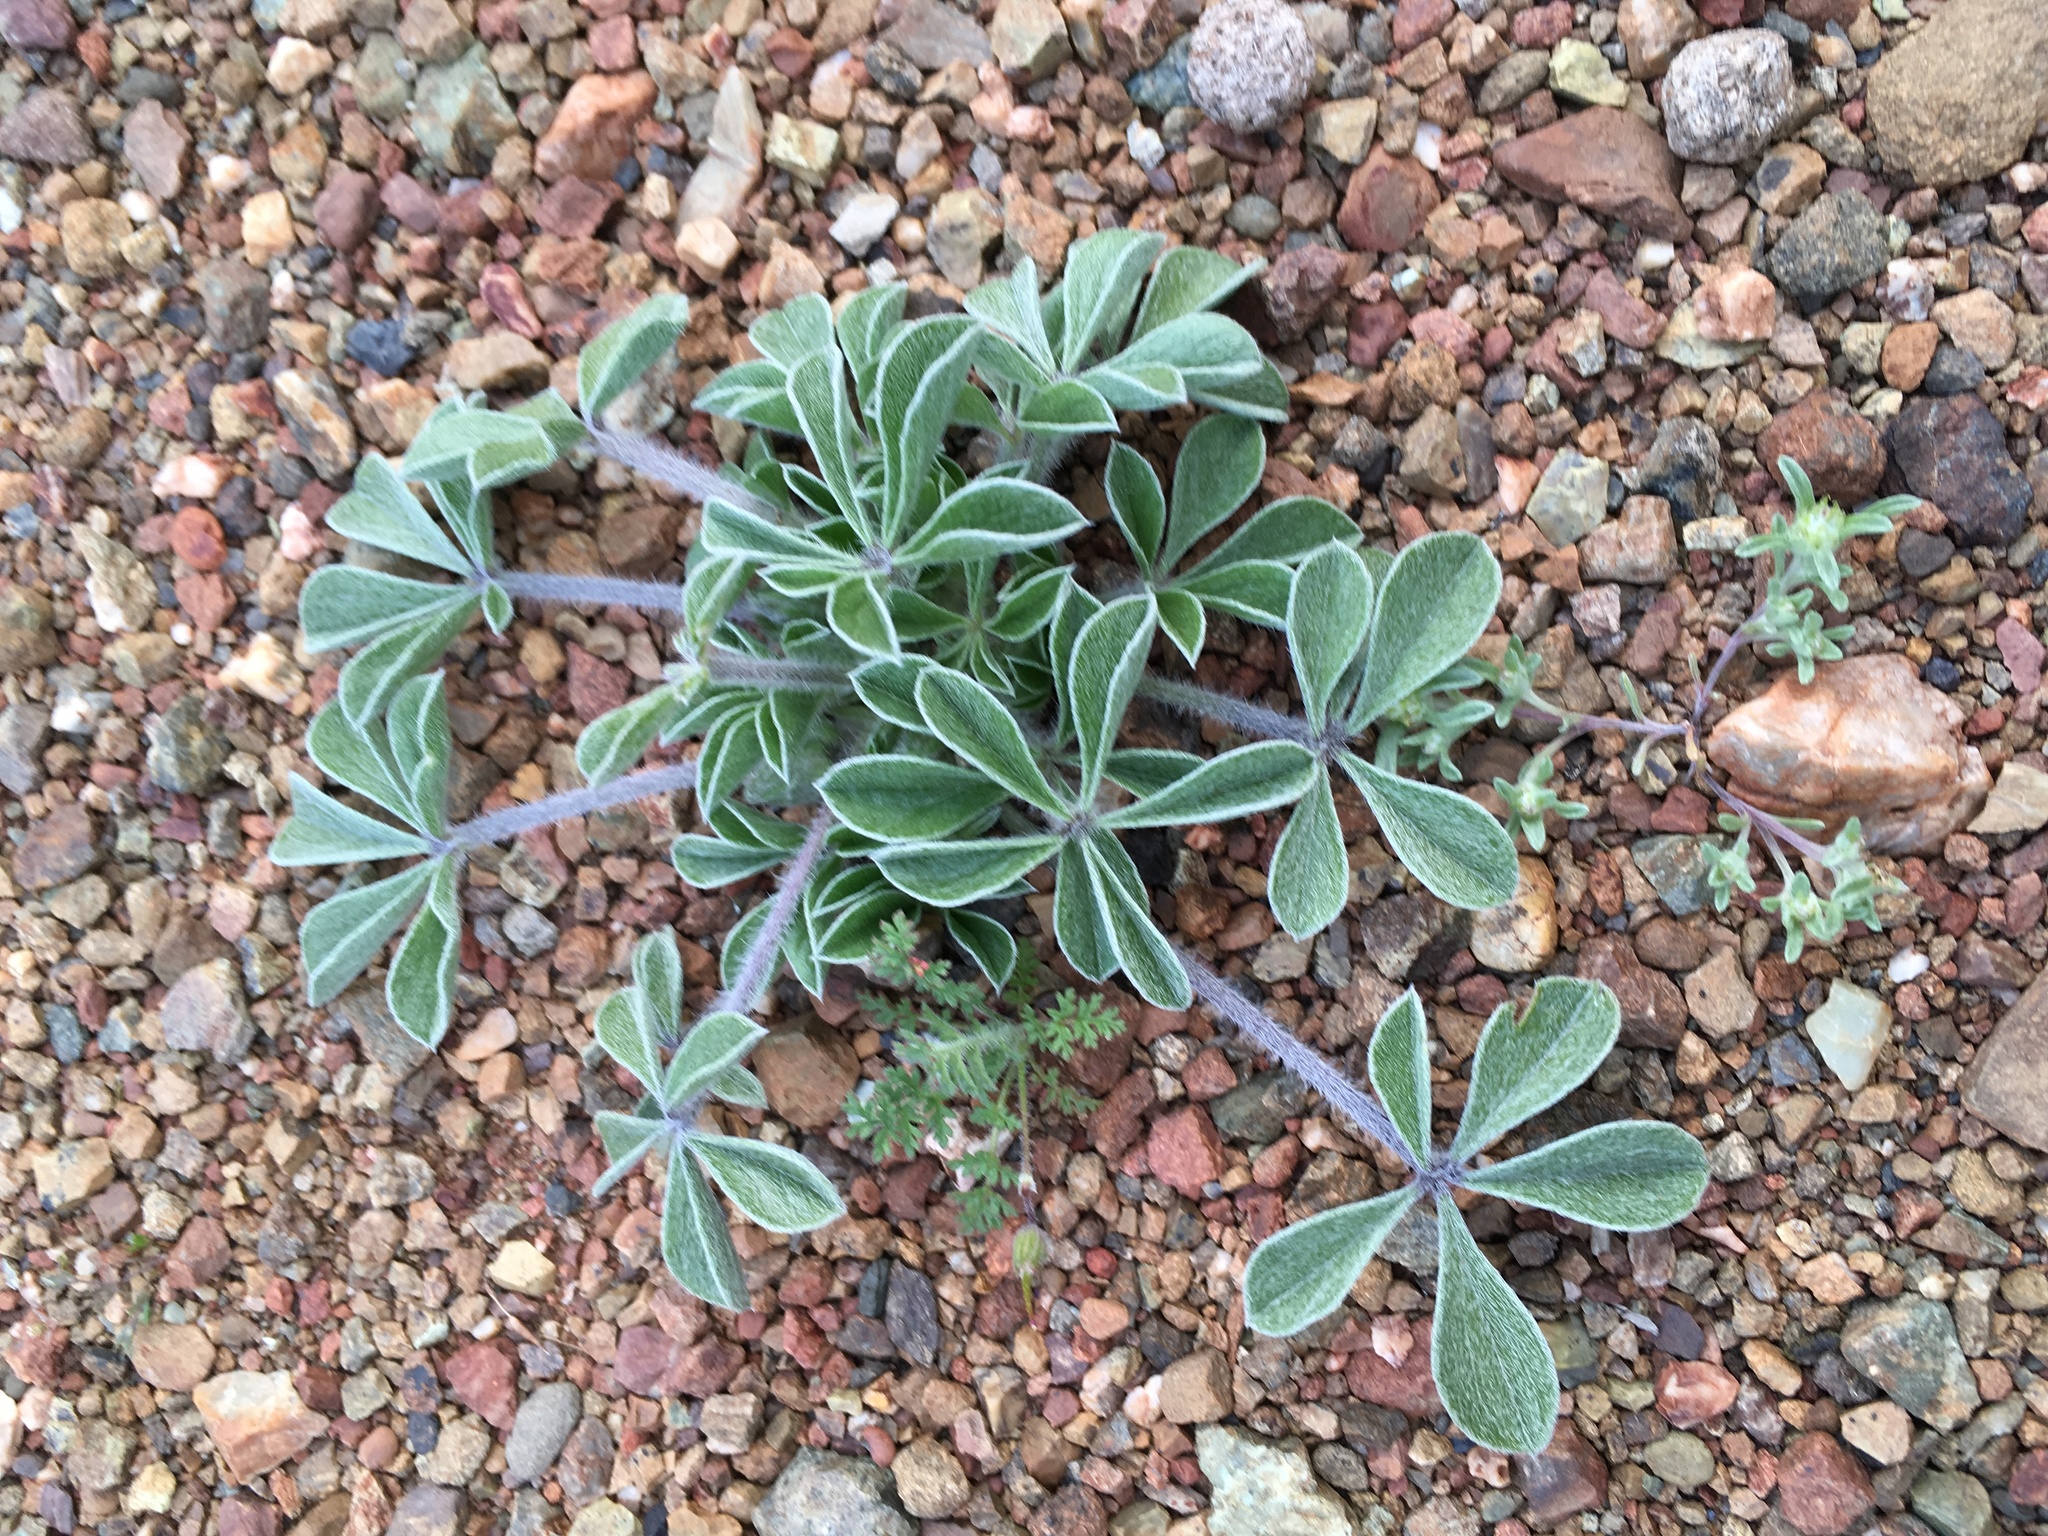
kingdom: Plantae
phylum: Tracheophyta
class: Magnoliopsida
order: Fabales
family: Fabaceae
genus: Pediomelum
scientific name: Pediomelum californicum
